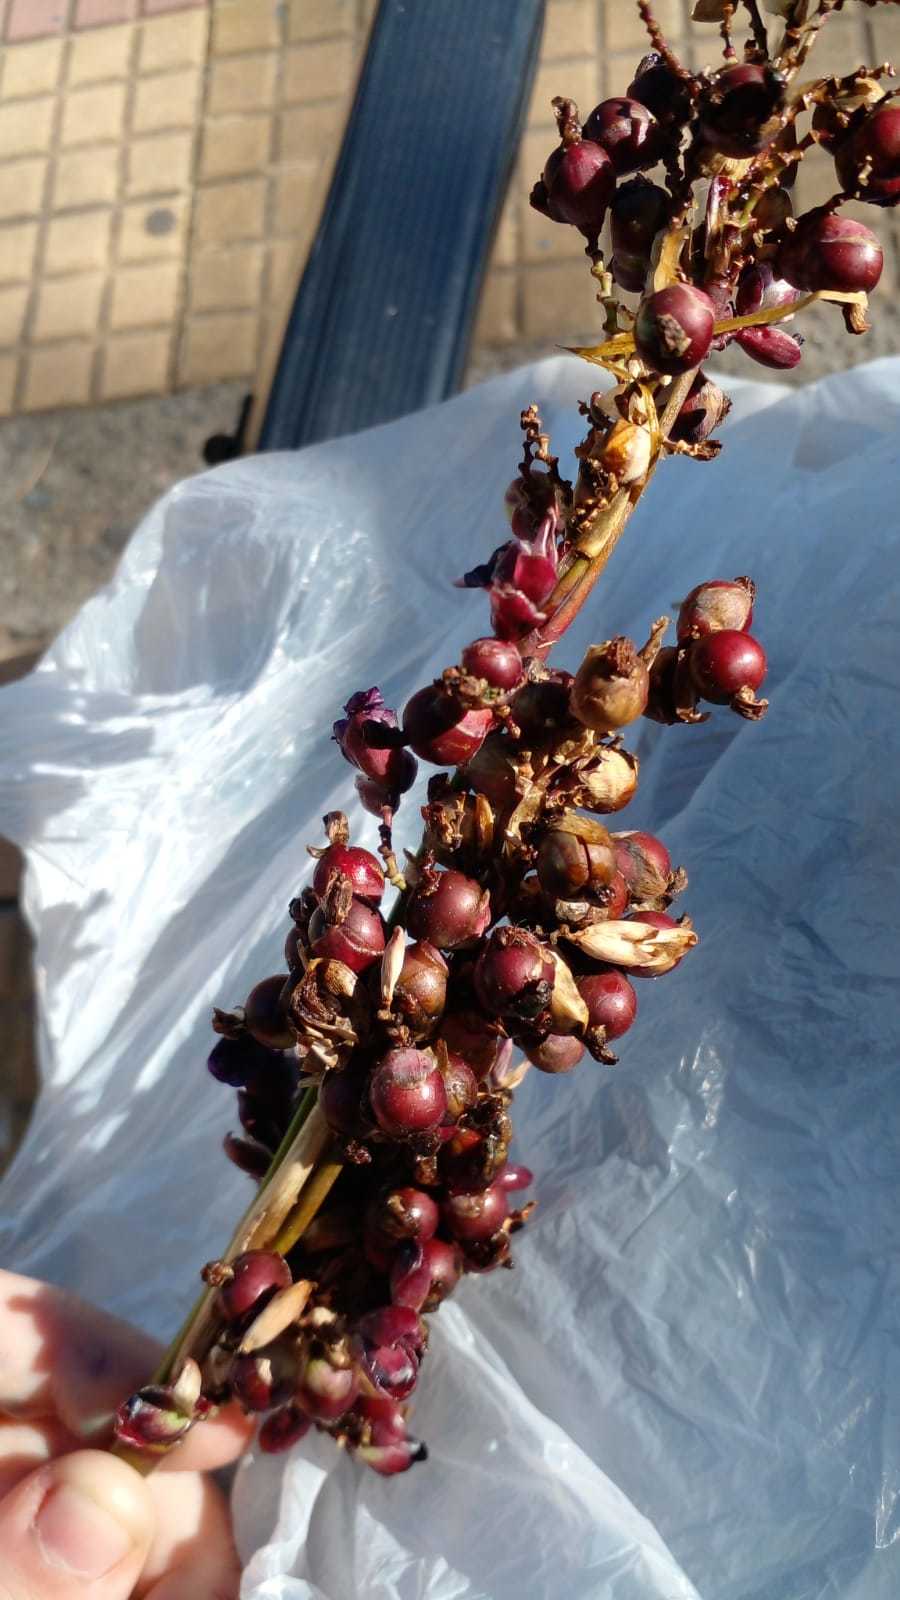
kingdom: Plantae
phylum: Tracheophyta
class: Liliopsida
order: Zingiberales
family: Marantaceae
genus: Thalia
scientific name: Thalia multiflora
